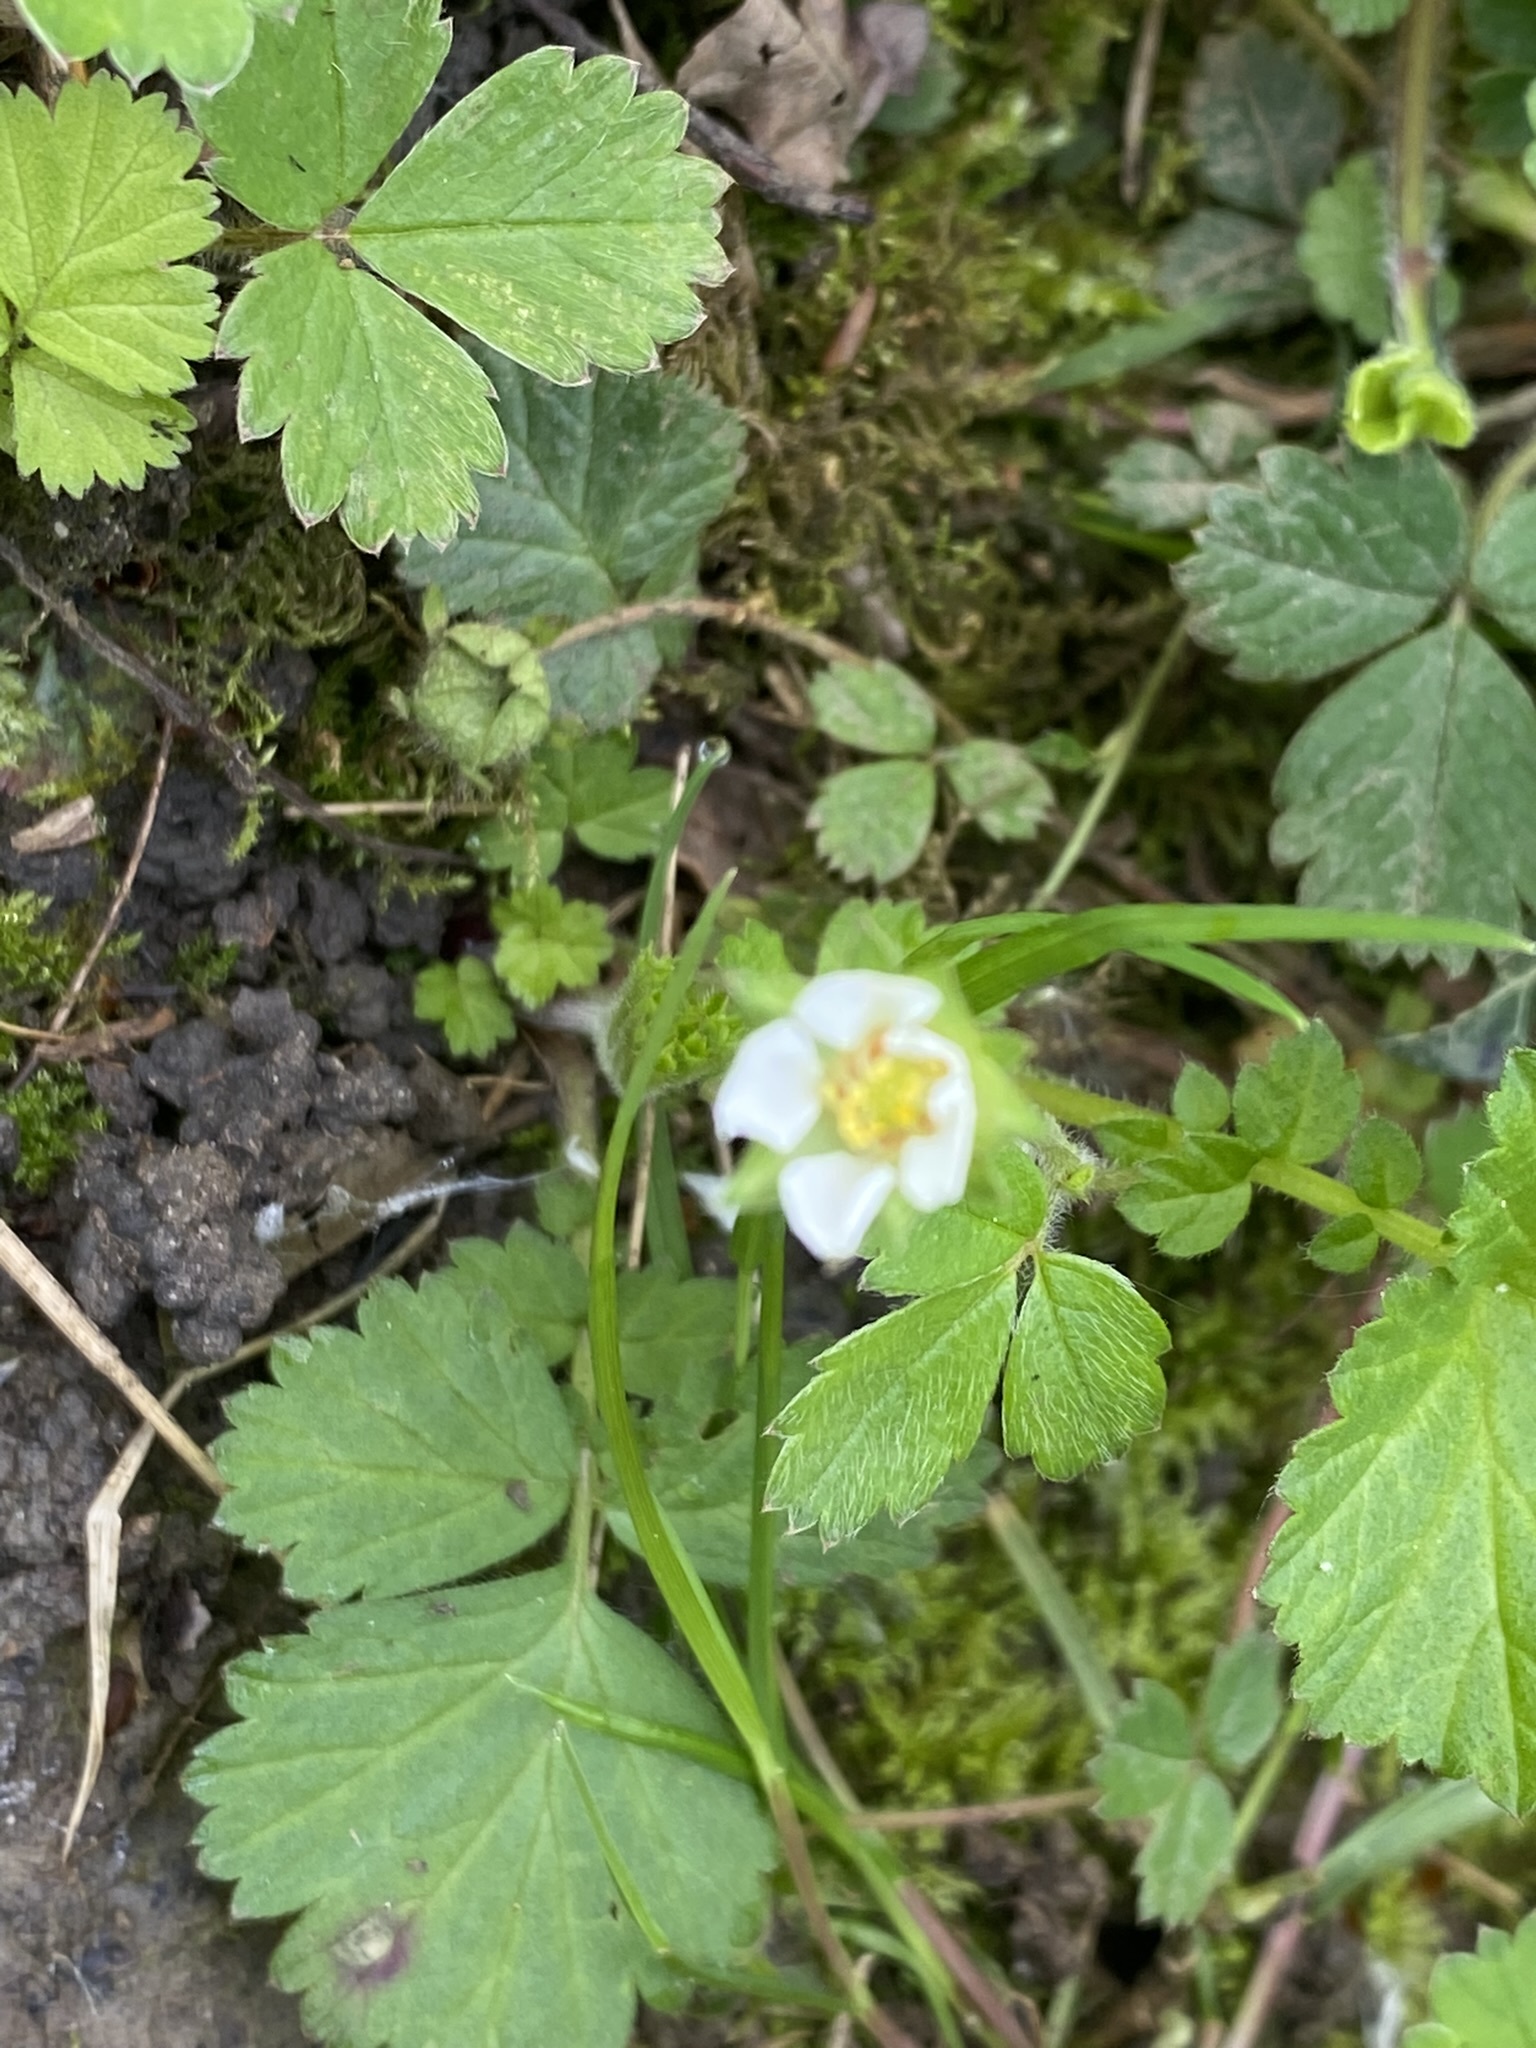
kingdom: Plantae
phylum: Tracheophyta
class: Magnoliopsida
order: Rosales
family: Rosaceae
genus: Potentilla
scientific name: Potentilla sterilis
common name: Barren strawberry
